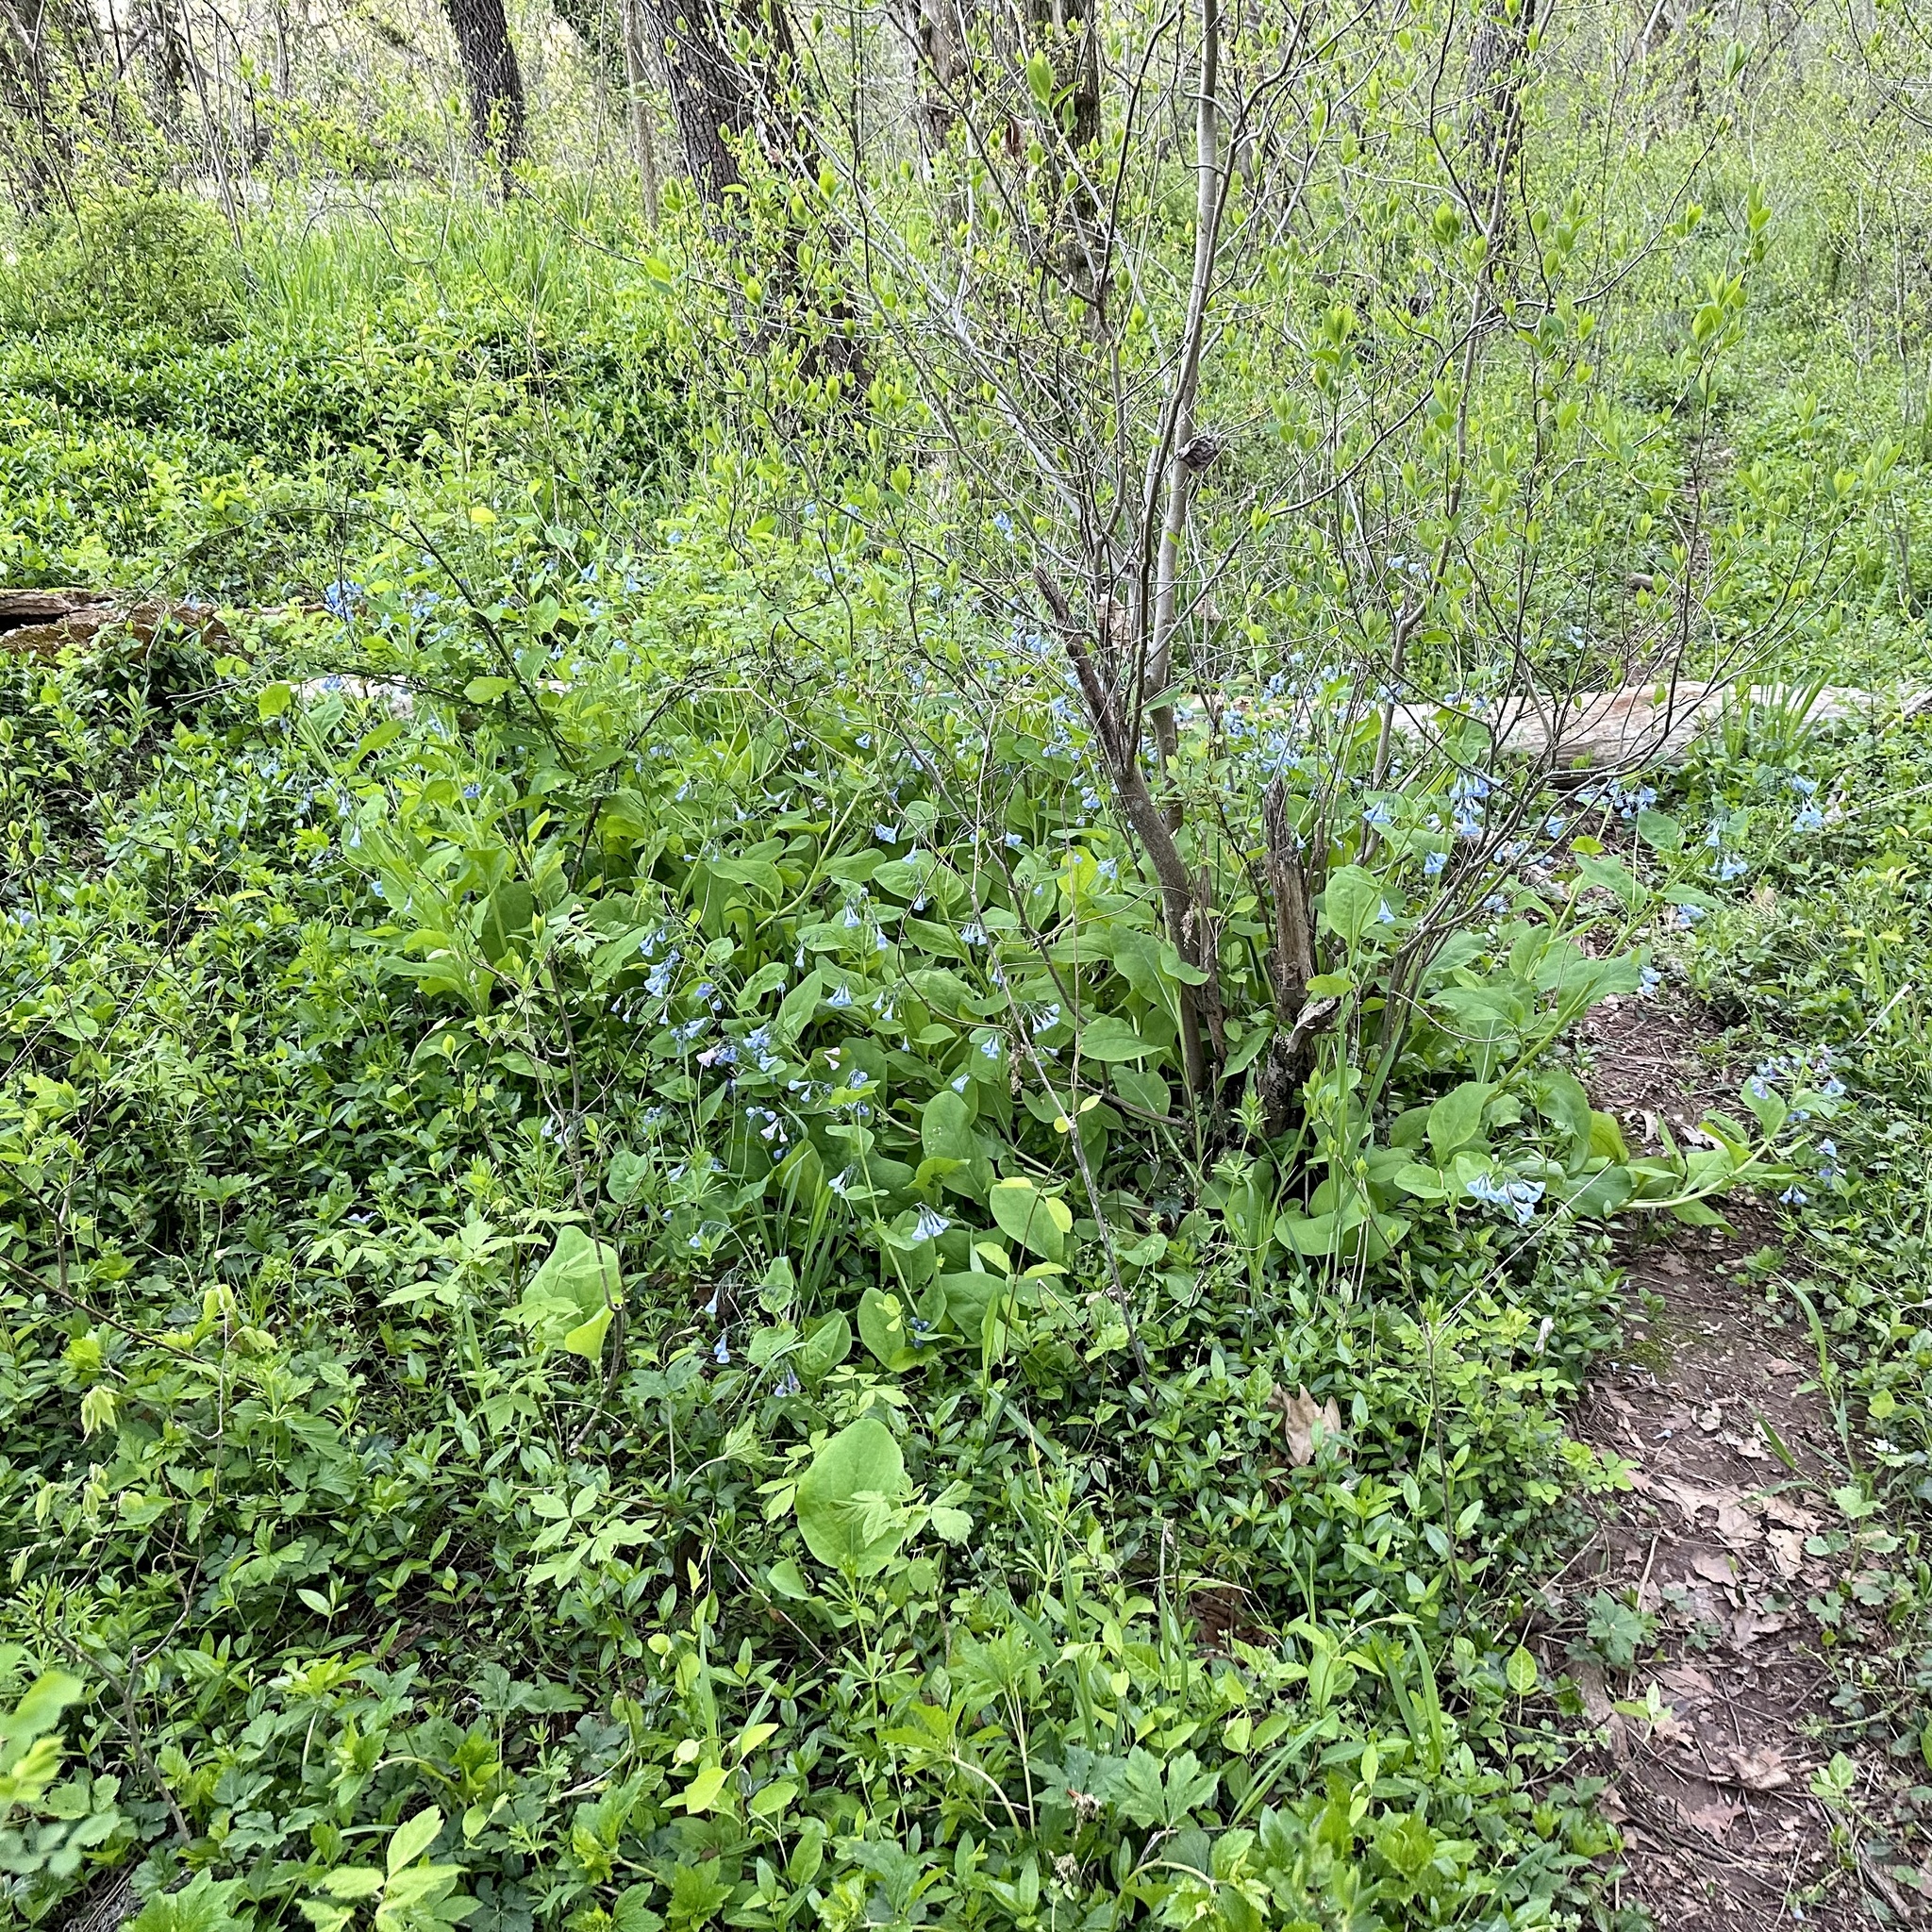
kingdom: Plantae
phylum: Tracheophyta
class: Magnoliopsida
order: Boraginales
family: Boraginaceae
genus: Mertensia
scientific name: Mertensia virginica
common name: Virginia bluebells
